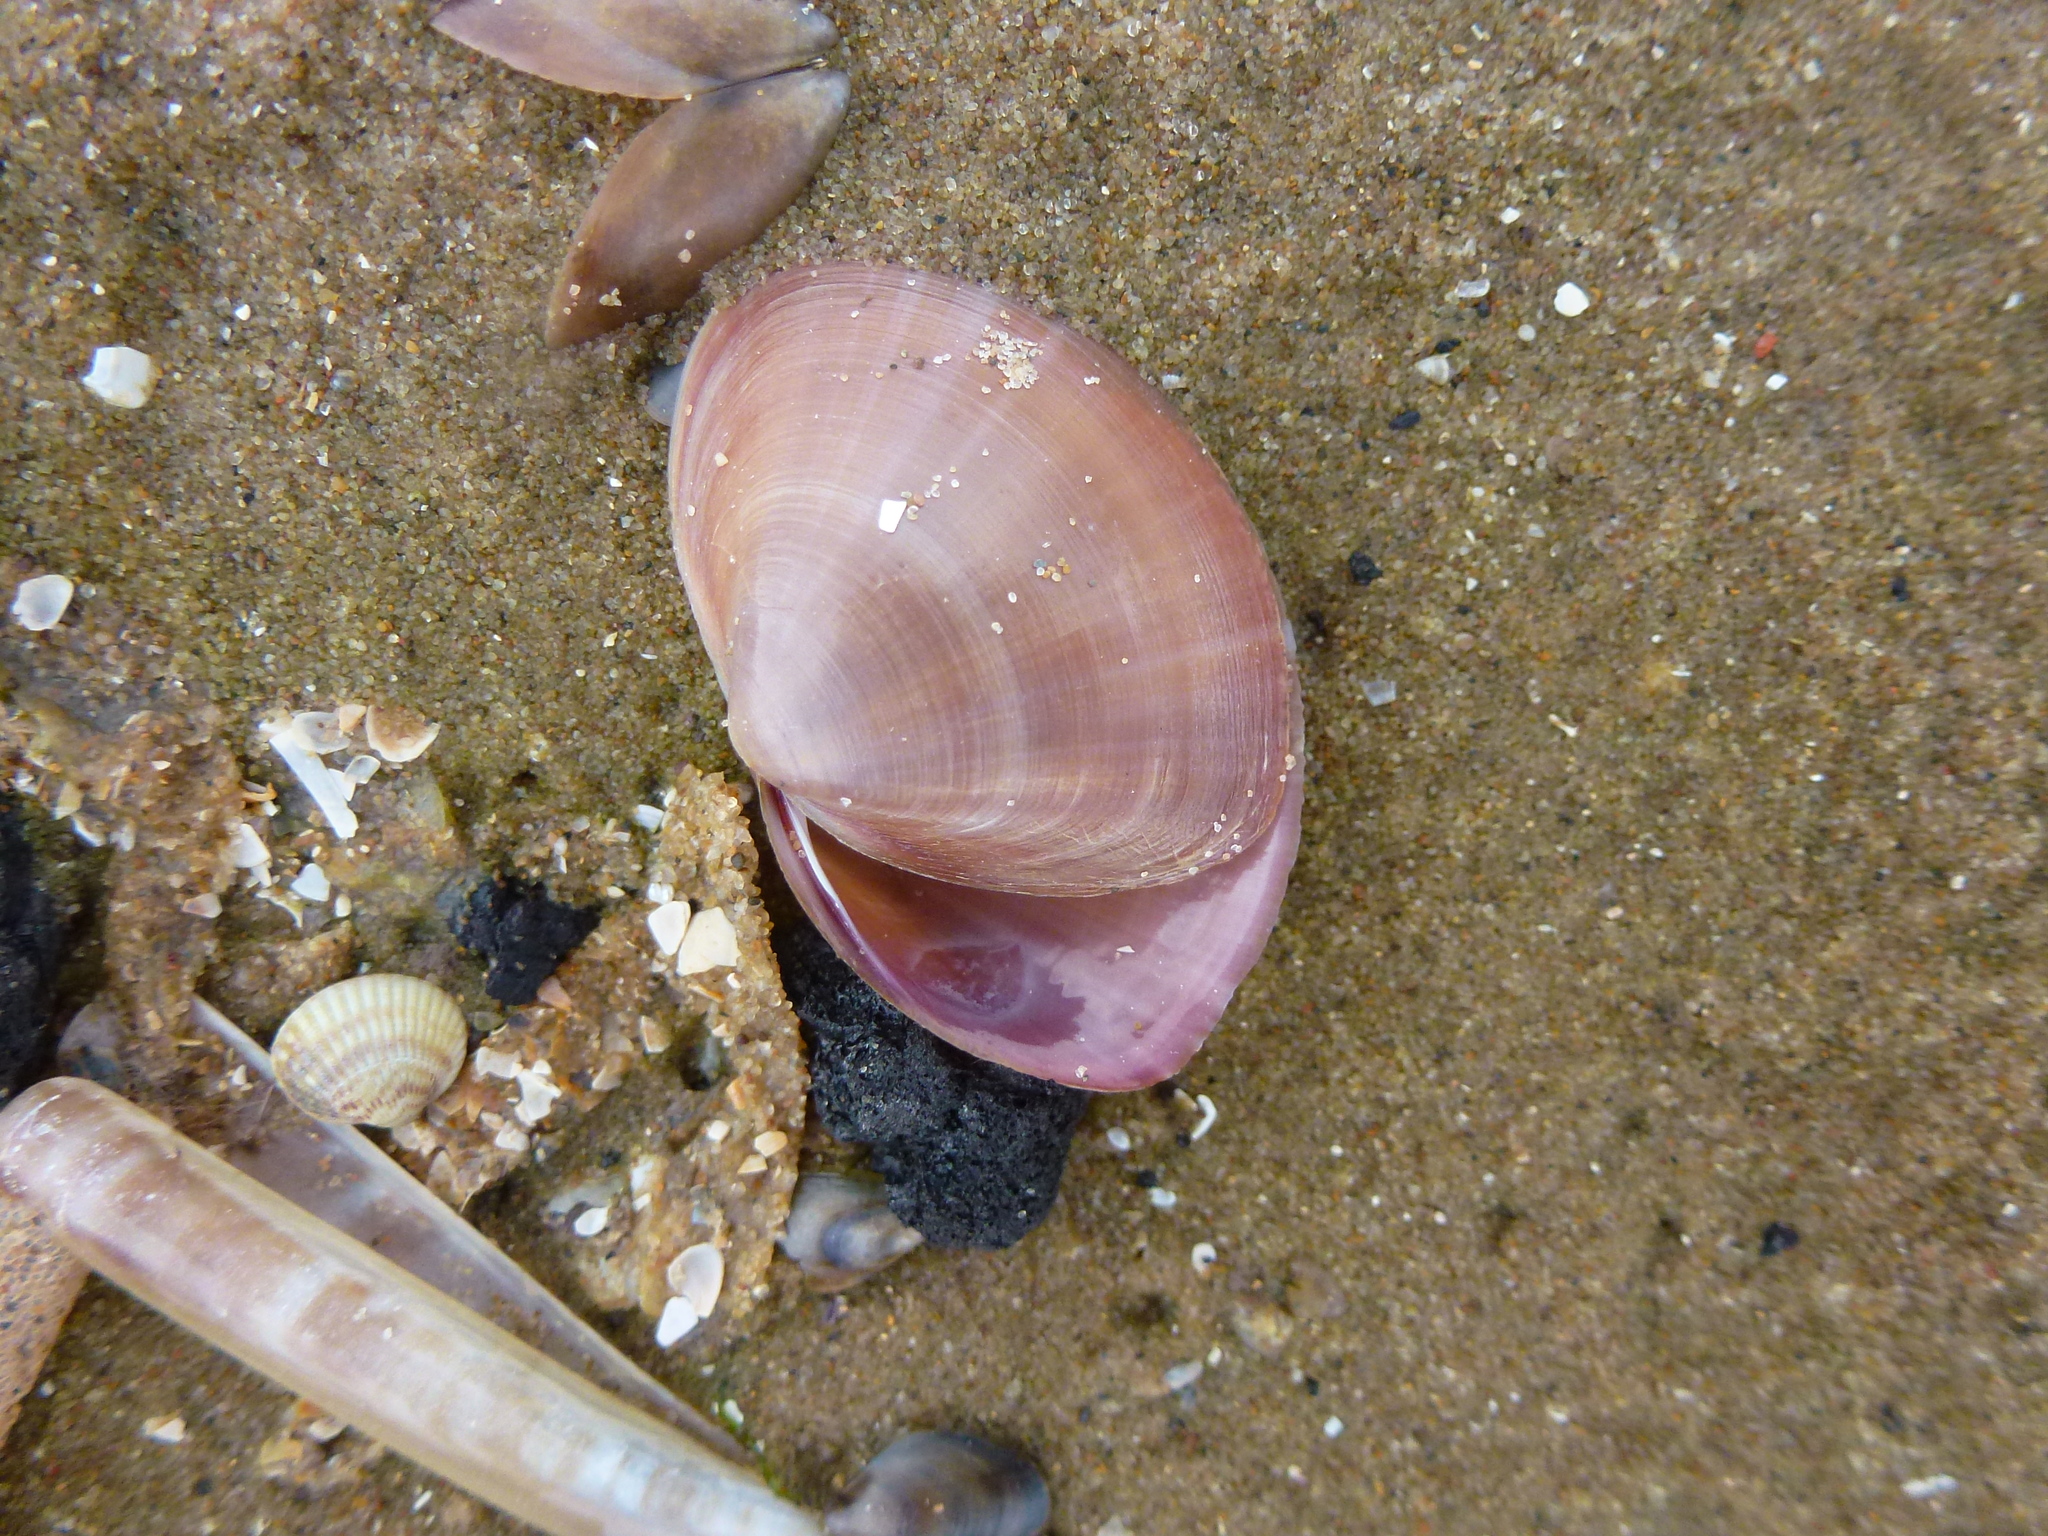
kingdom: Animalia
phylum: Mollusca
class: Bivalvia
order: Venerida
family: Mactridae
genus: Mactra
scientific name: Mactra stultorum
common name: Rayed trough shell
